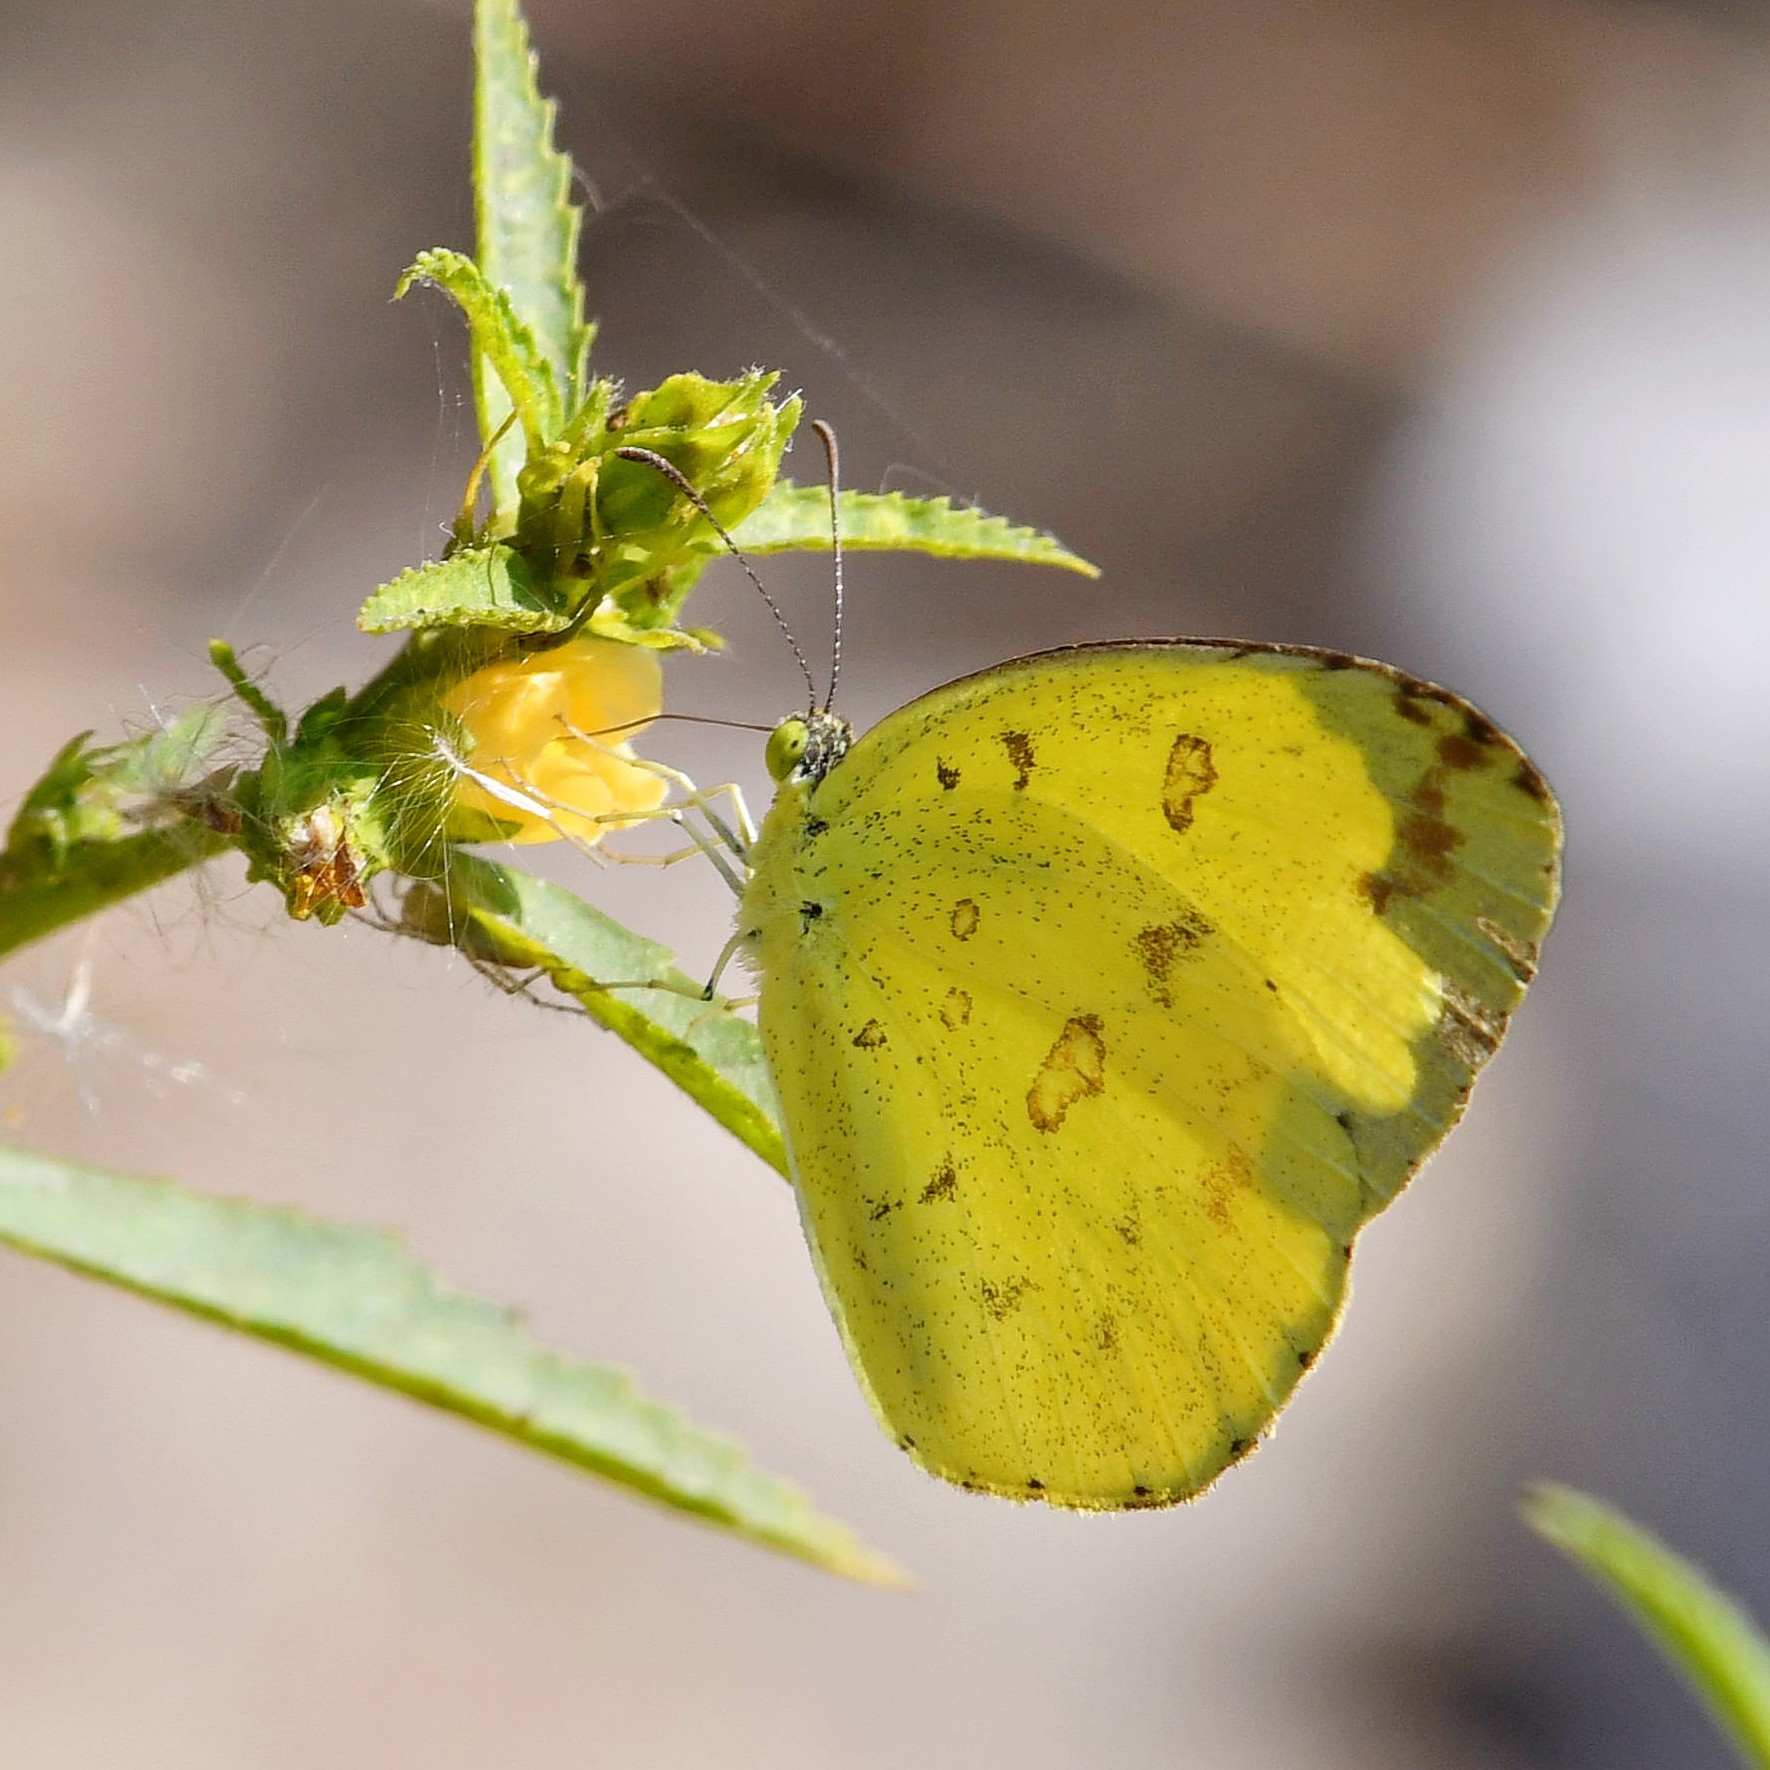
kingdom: Animalia
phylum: Arthropoda
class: Insecta
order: Lepidoptera
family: Pieridae
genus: Eurema
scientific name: Eurema hecabe
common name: Pale grass yellow
